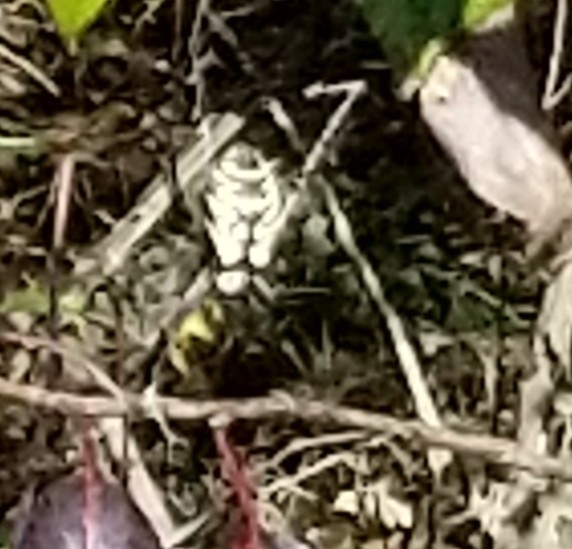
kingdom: Animalia
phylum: Arthropoda
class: Arachnida
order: Araneae
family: Araneidae
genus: Argiope
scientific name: Argiope aurantia
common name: Orb weavers
